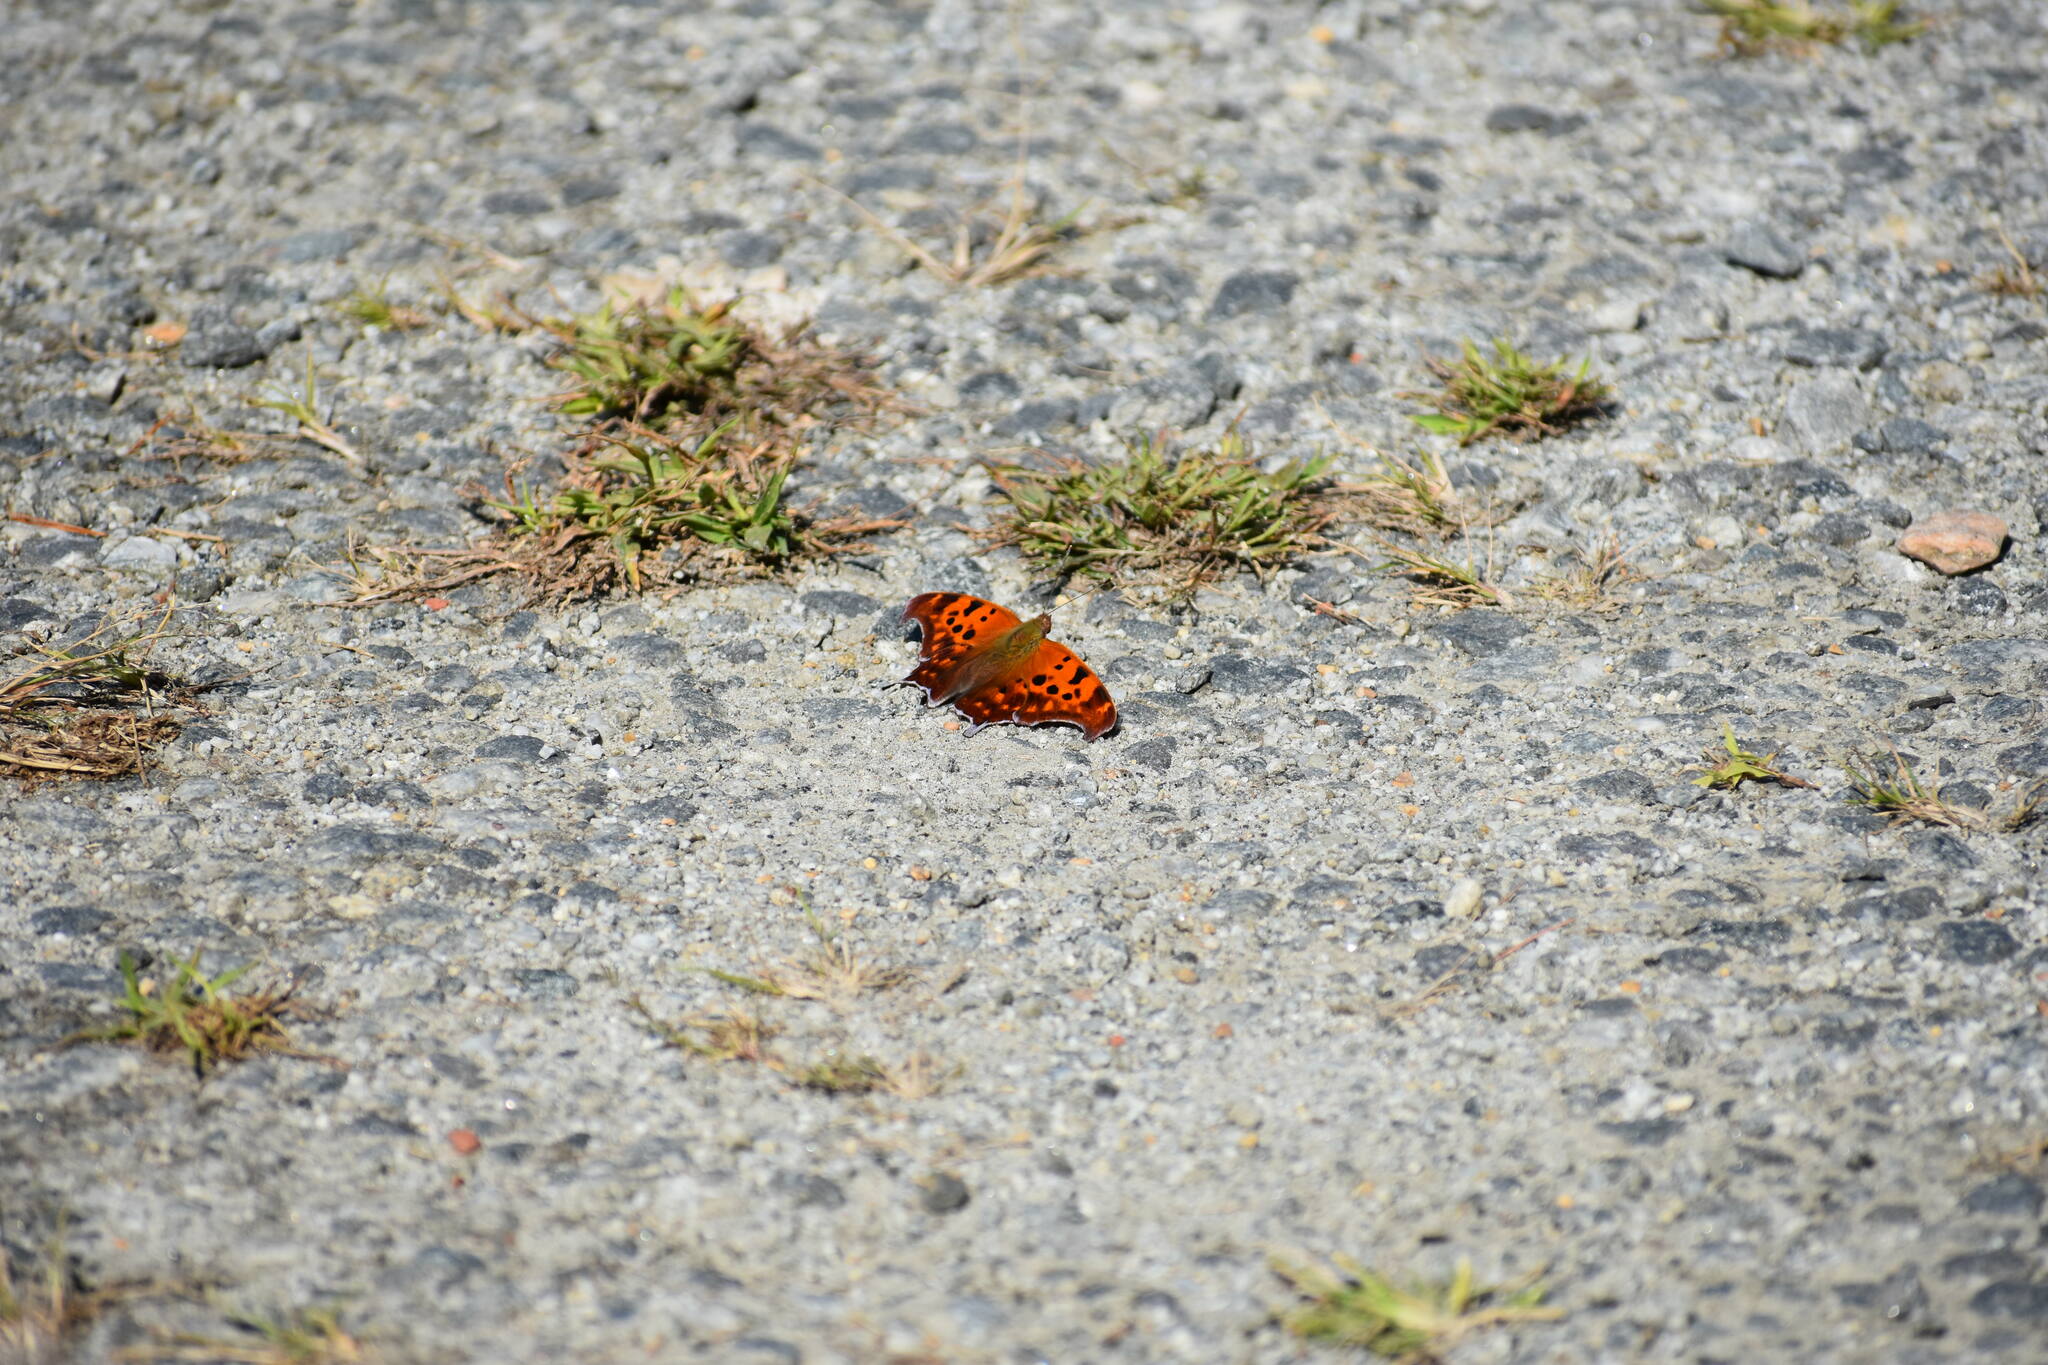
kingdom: Animalia
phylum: Arthropoda
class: Insecta
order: Lepidoptera
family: Nymphalidae
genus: Polygonia
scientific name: Polygonia interrogationis
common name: Question mark
